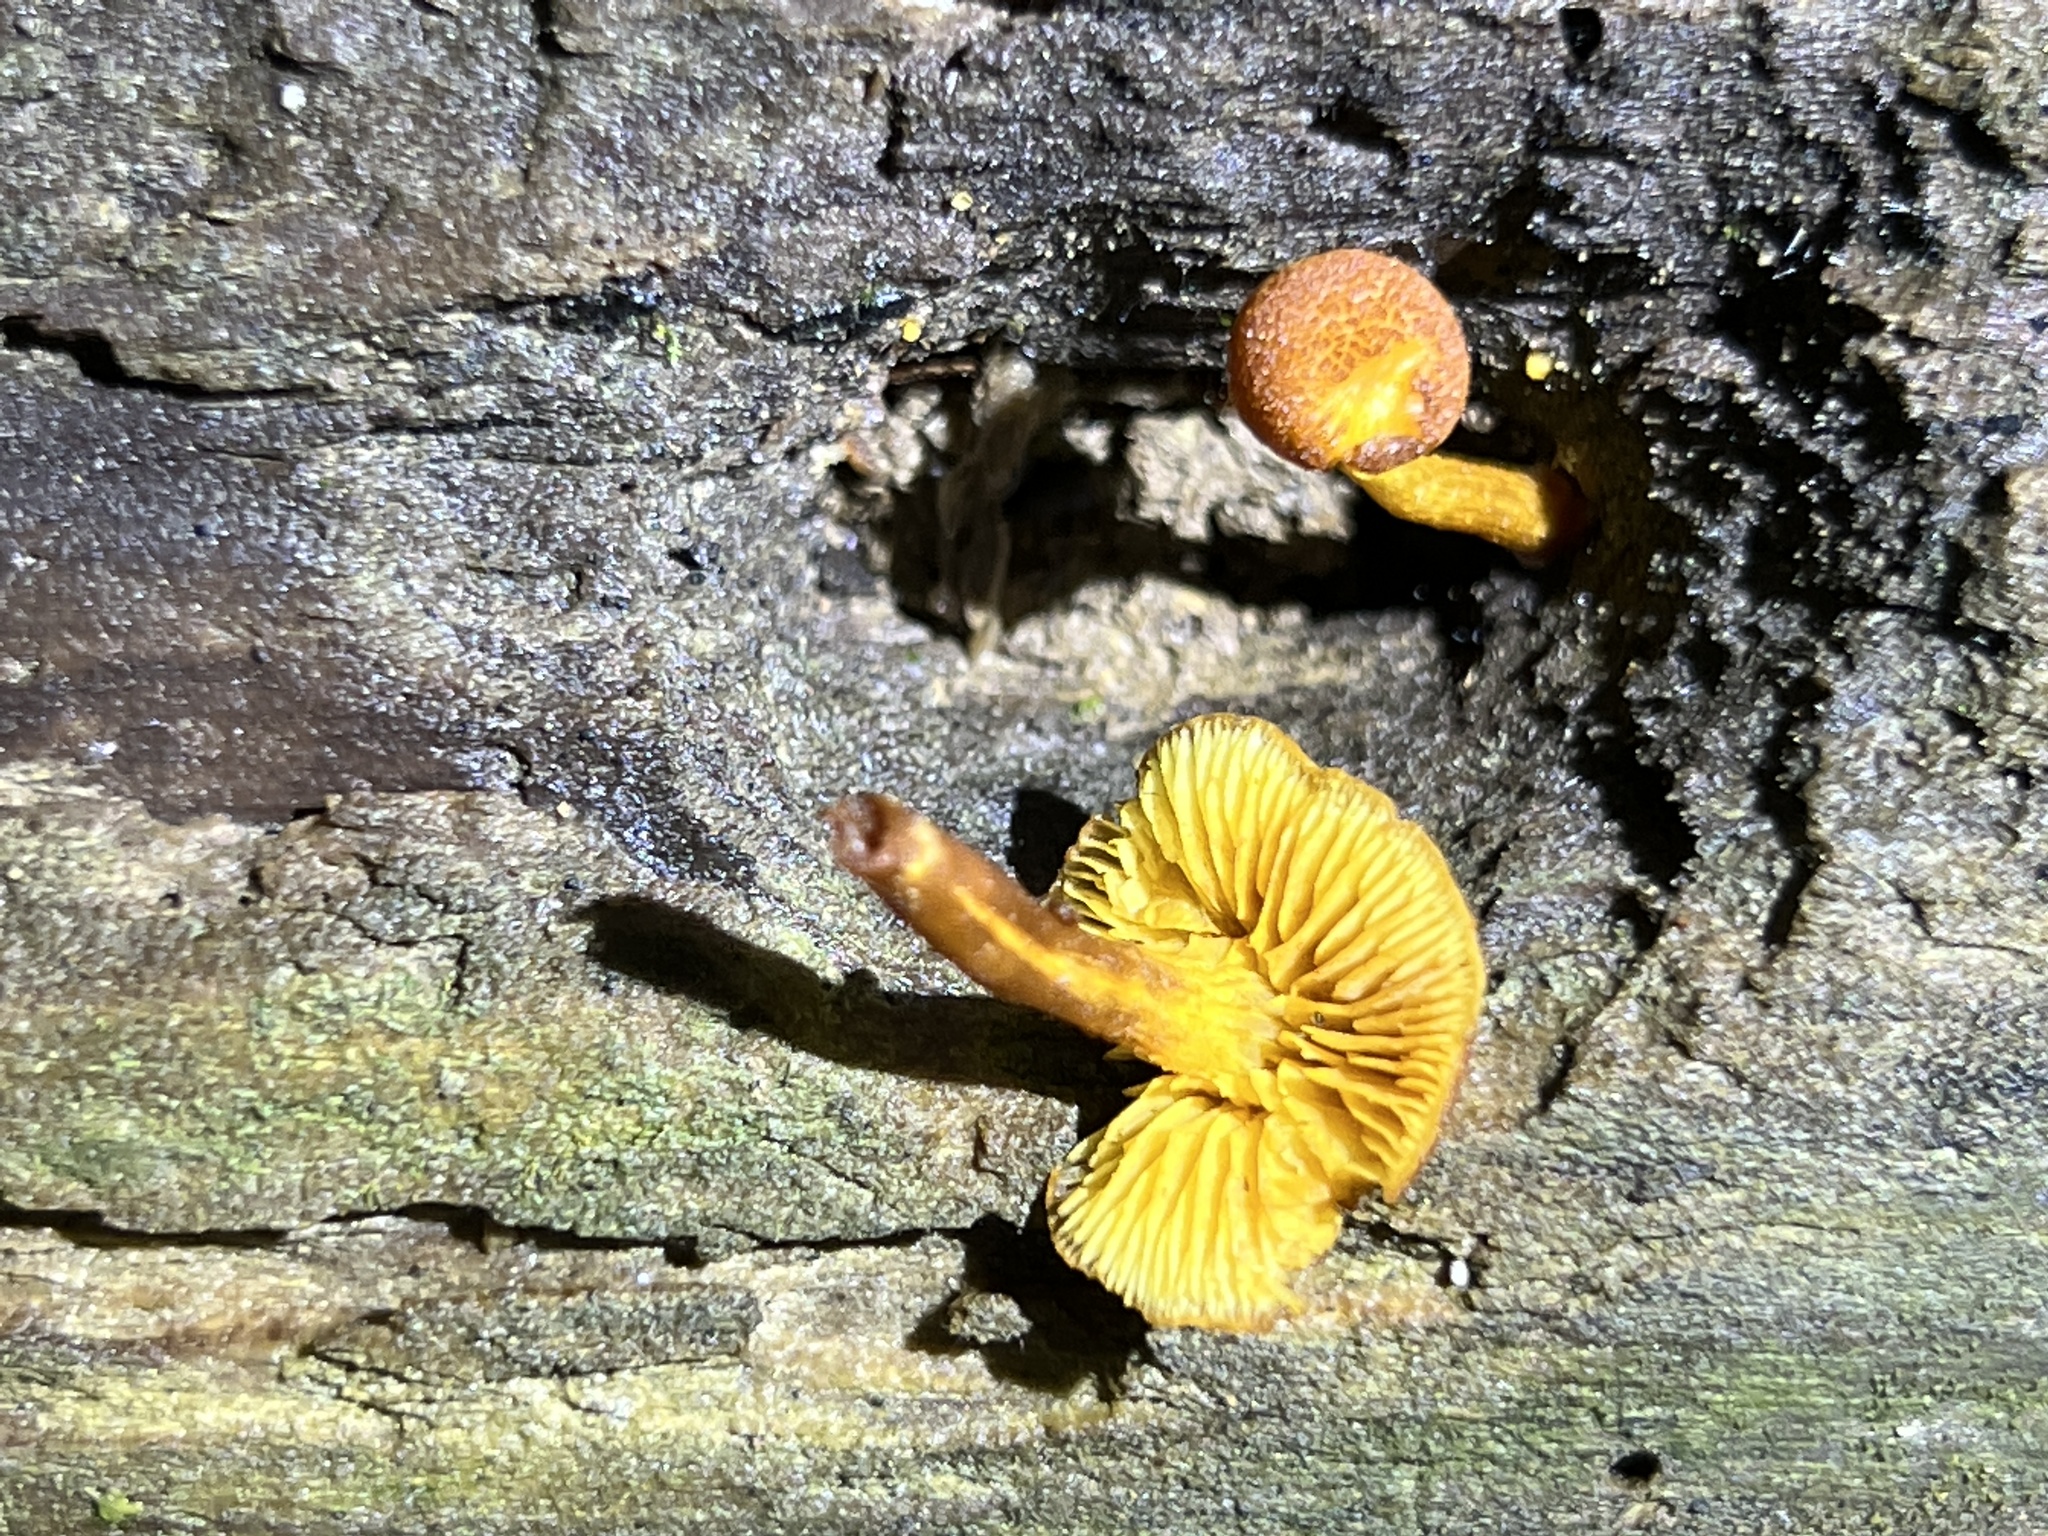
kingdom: Fungi
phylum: Basidiomycota
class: Agaricomycetes
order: Agaricales
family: Tubariaceae
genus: Phaeomarasmius
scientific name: Phaeomarasmius proximans
